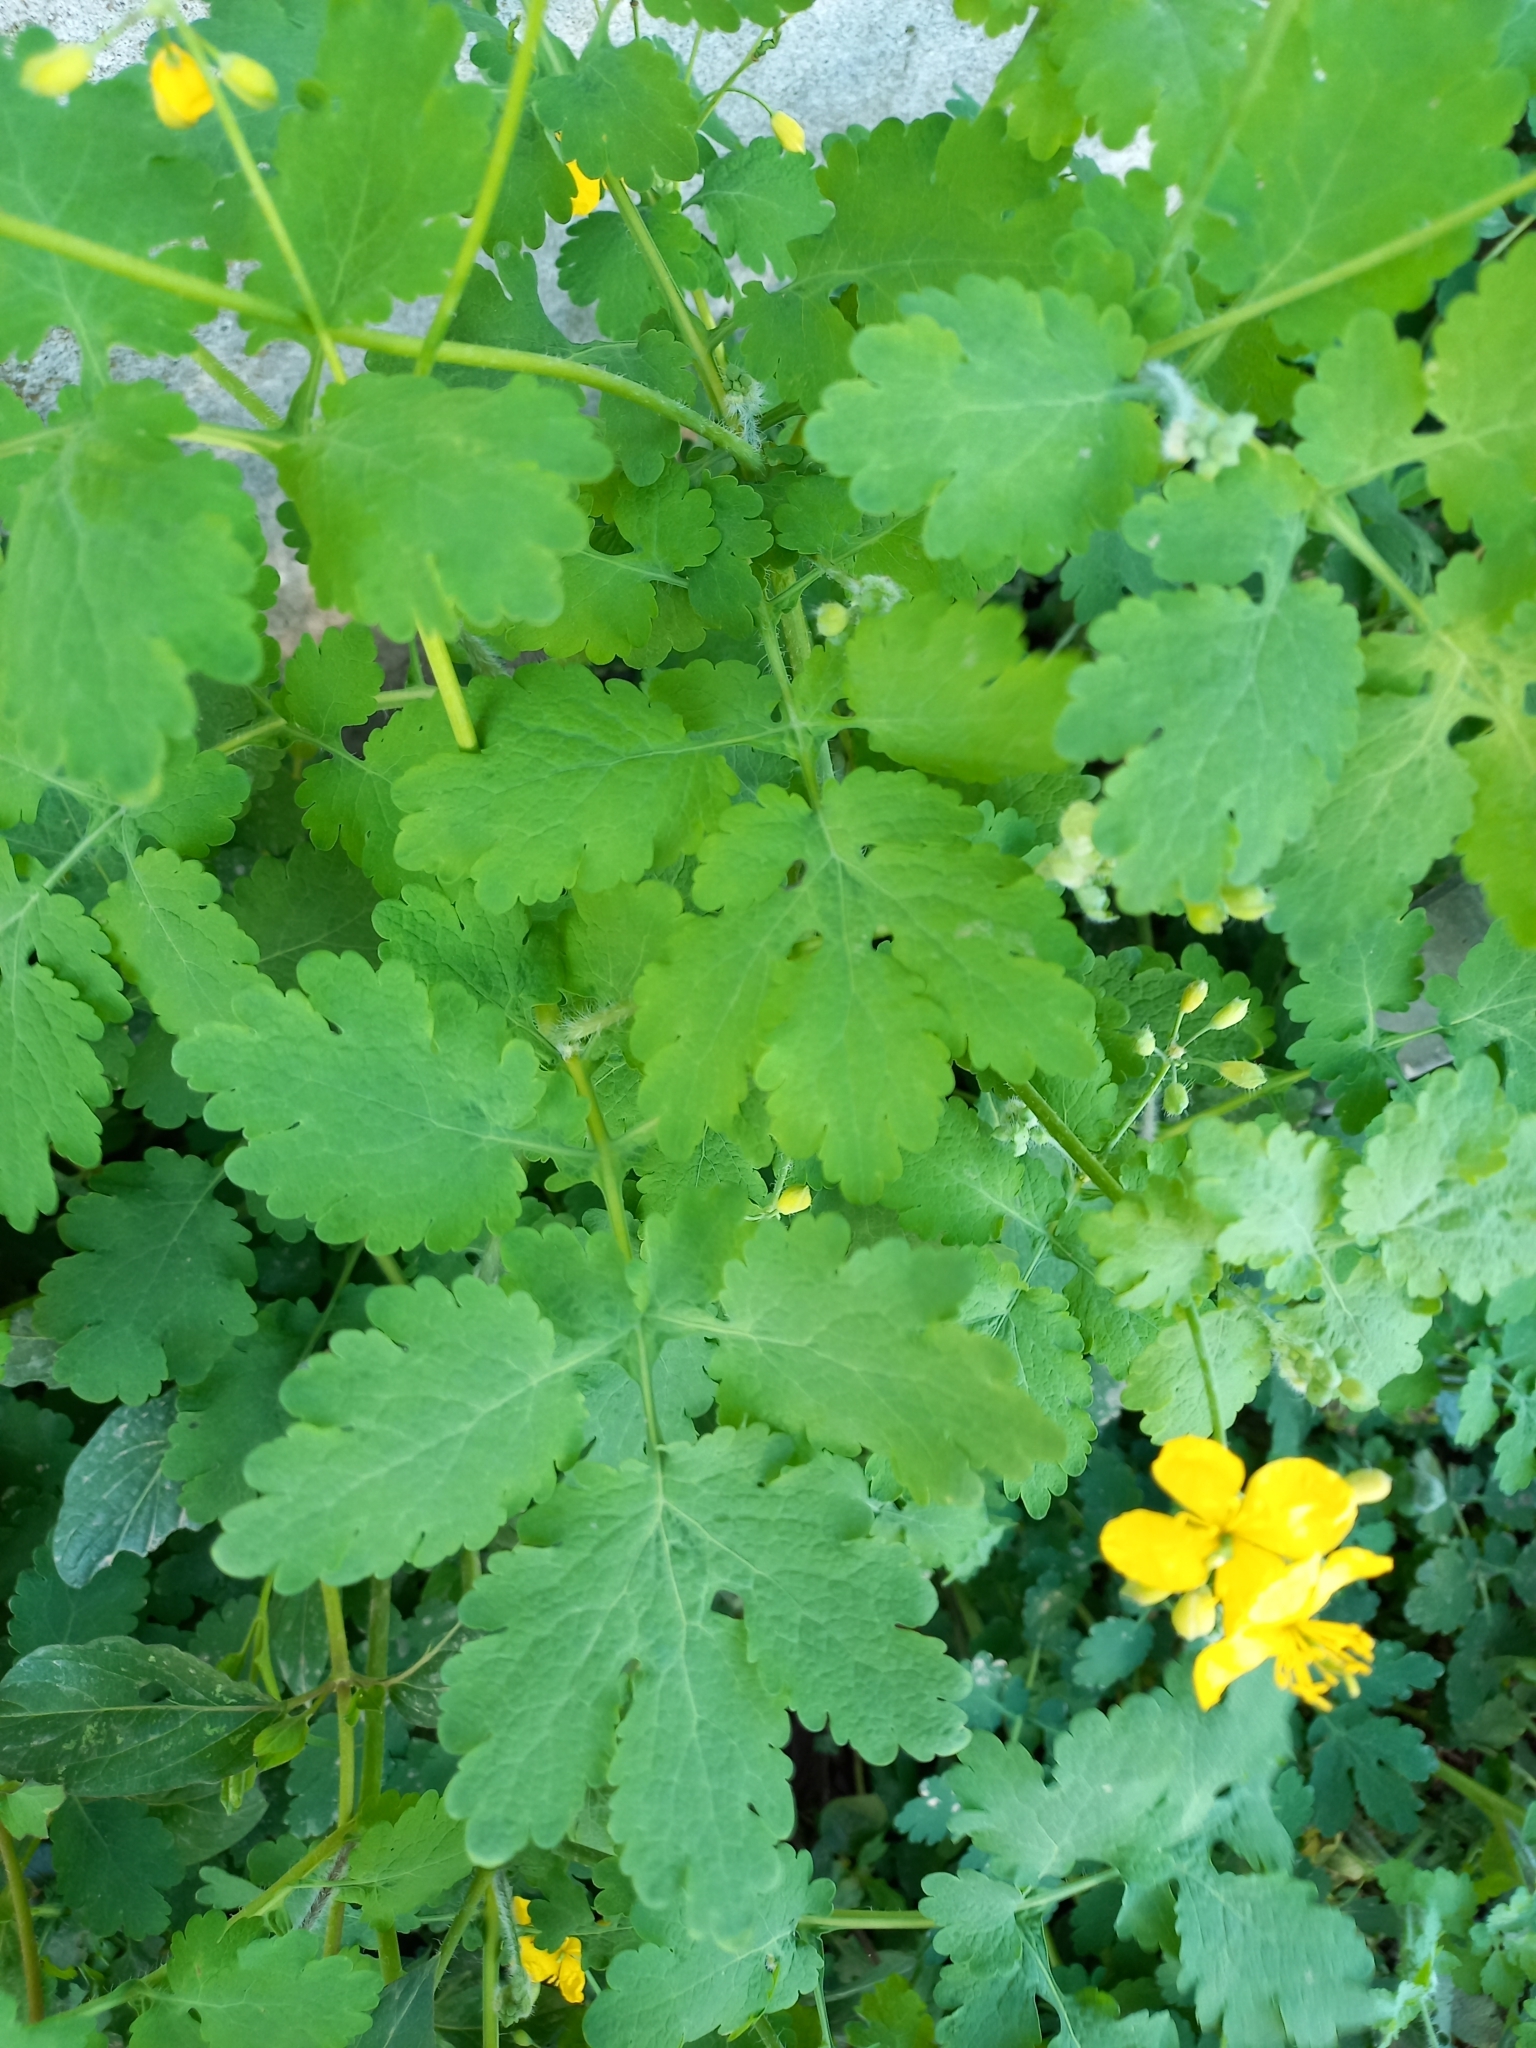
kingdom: Plantae
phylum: Tracheophyta
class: Magnoliopsida
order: Ranunculales
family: Papaveraceae
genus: Chelidonium
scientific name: Chelidonium majus
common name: Greater celandine
